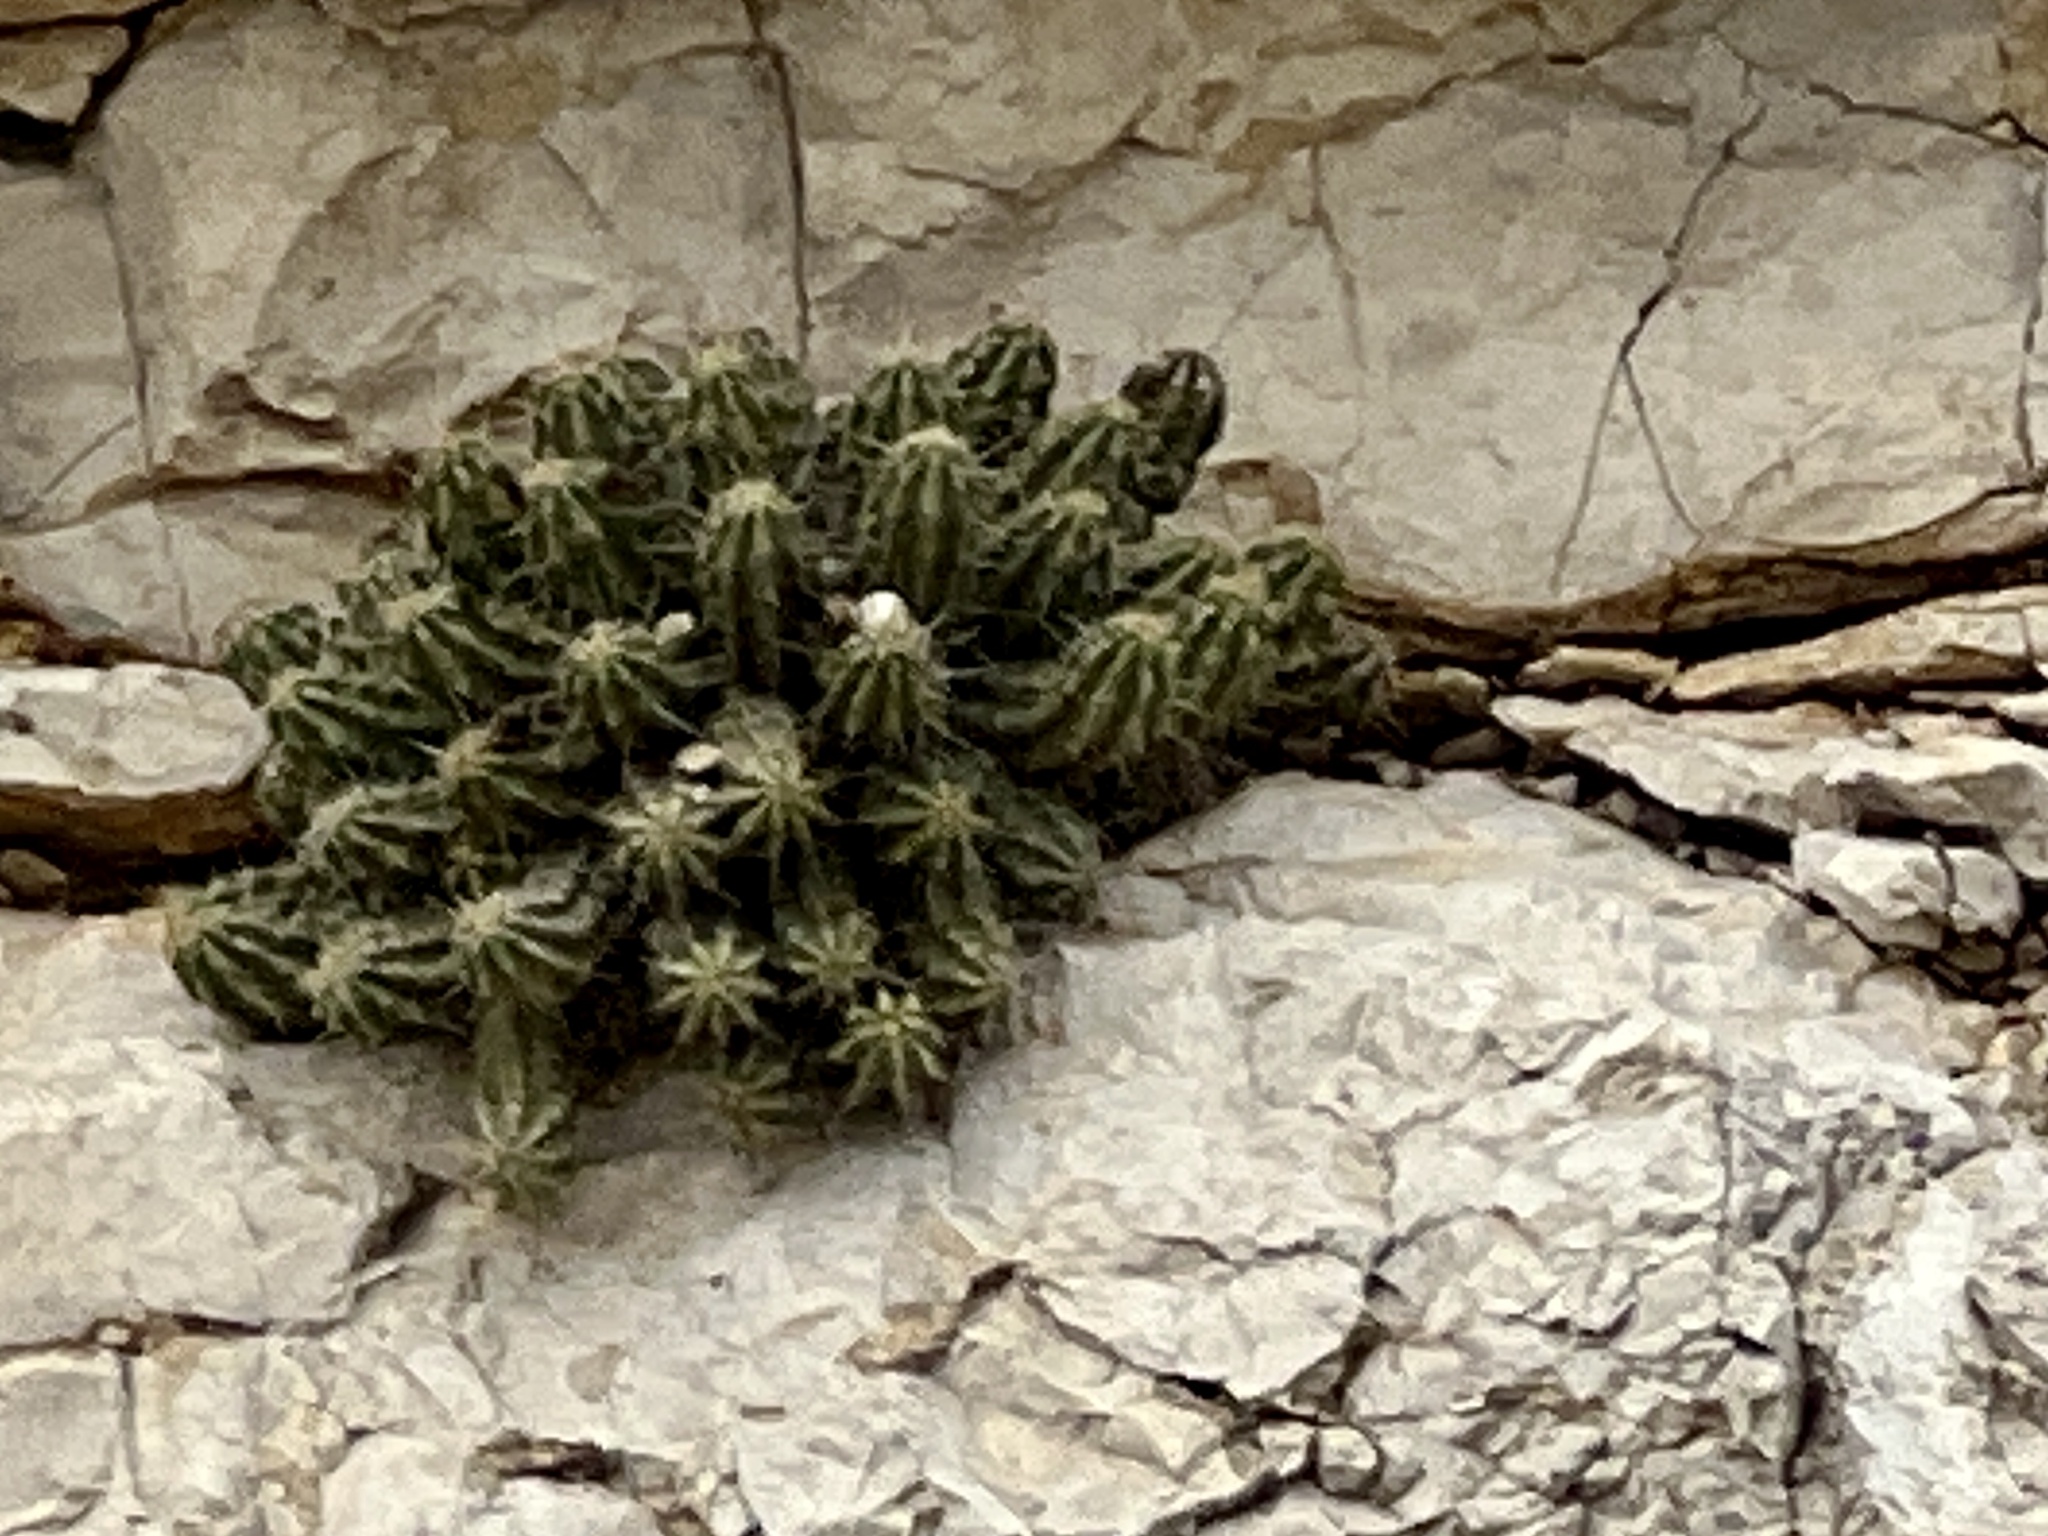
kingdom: Plantae
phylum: Tracheophyta
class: Magnoliopsida
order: Caryophyllales
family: Cactaceae
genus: Echinocereus
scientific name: Echinocereus enneacanthus
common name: Pitaya
